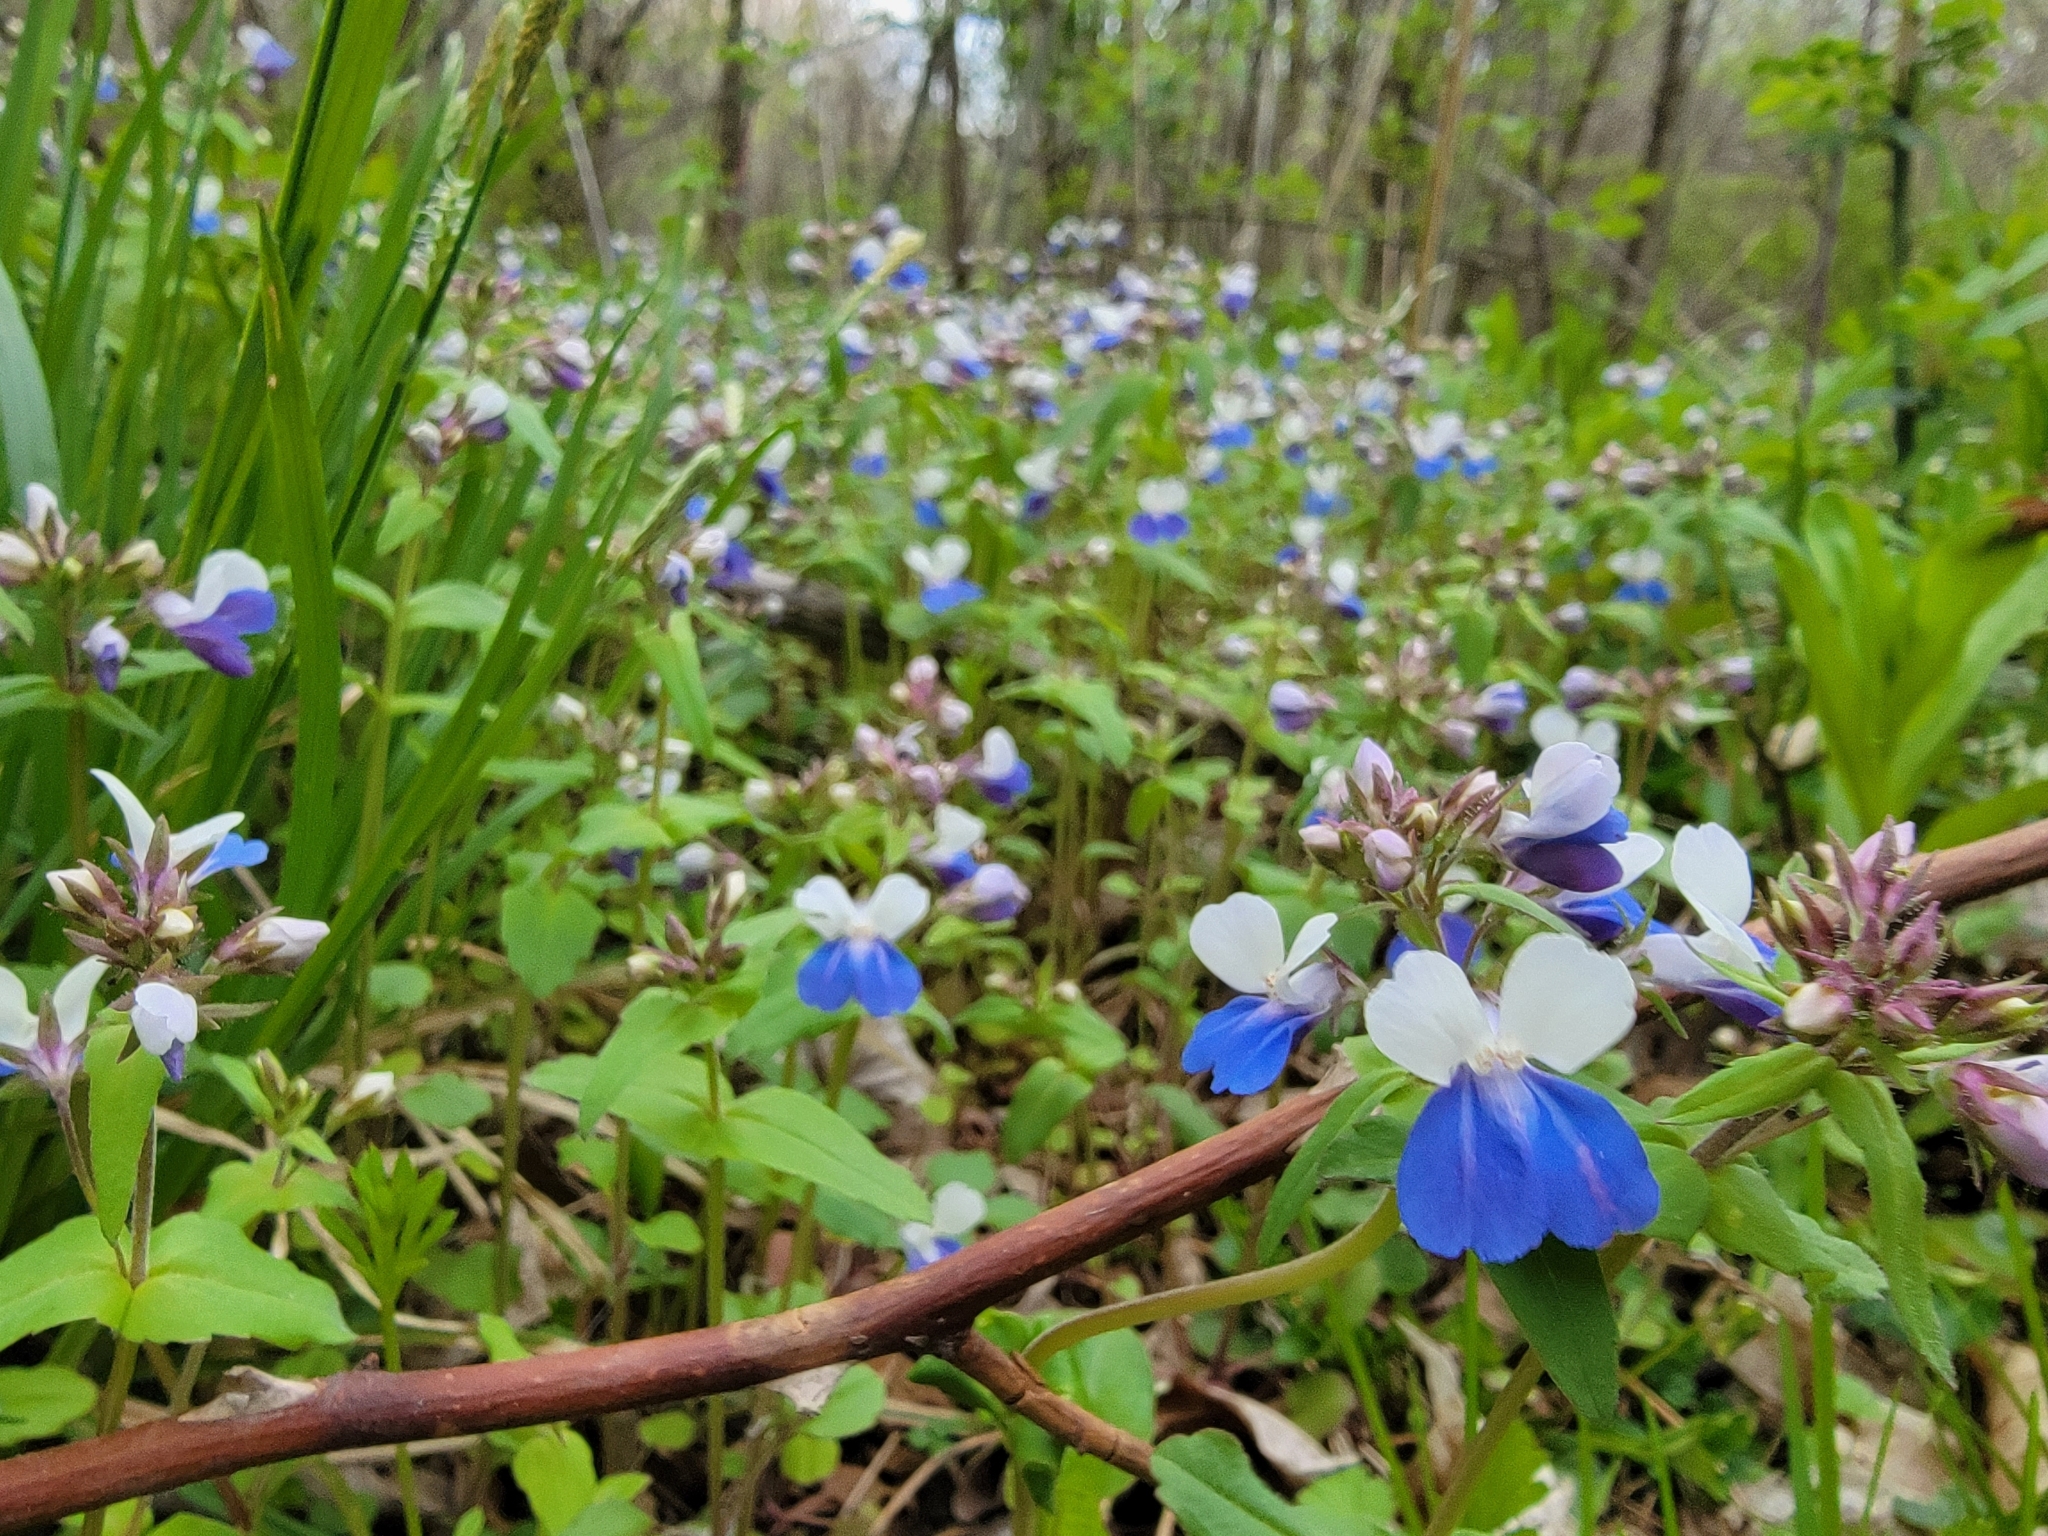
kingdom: Plantae
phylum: Tracheophyta
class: Magnoliopsida
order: Lamiales
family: Plantaginaceae
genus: Collinsia
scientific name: Collinsia verna
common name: Broad-leaved collinsia
